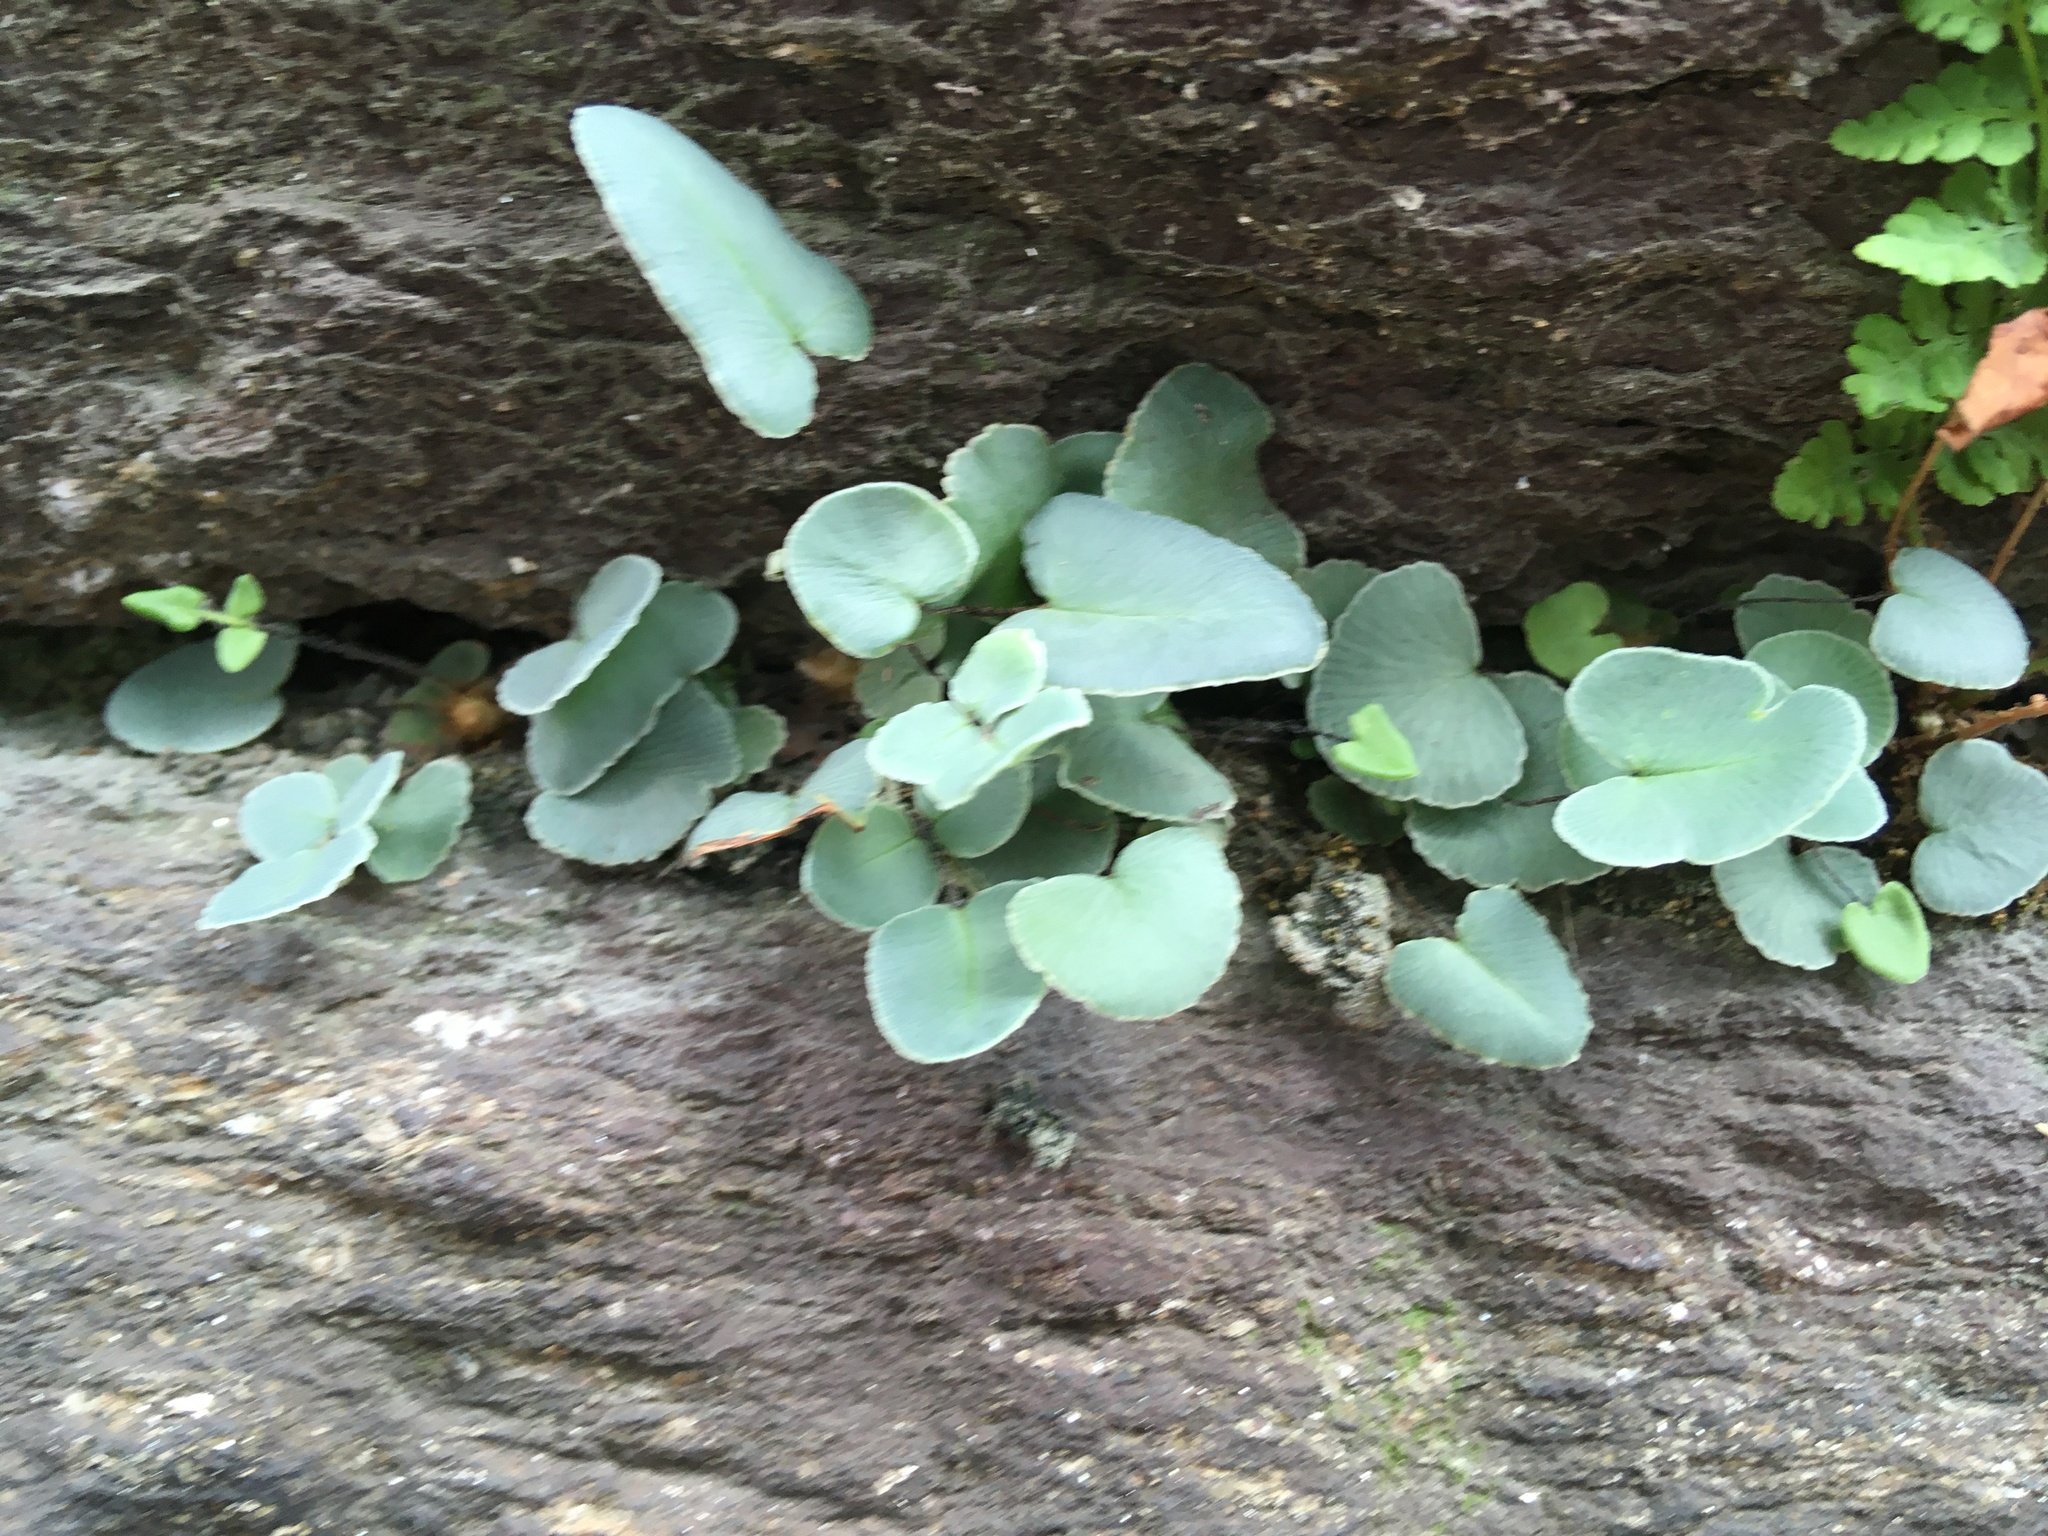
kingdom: Plantae
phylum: Tracheophyta
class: Polypodiopsida
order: Polypodiales
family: Pteridaceae
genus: Pellaea
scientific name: Pellaea atropurpurea
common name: Hairy cliffbrake
